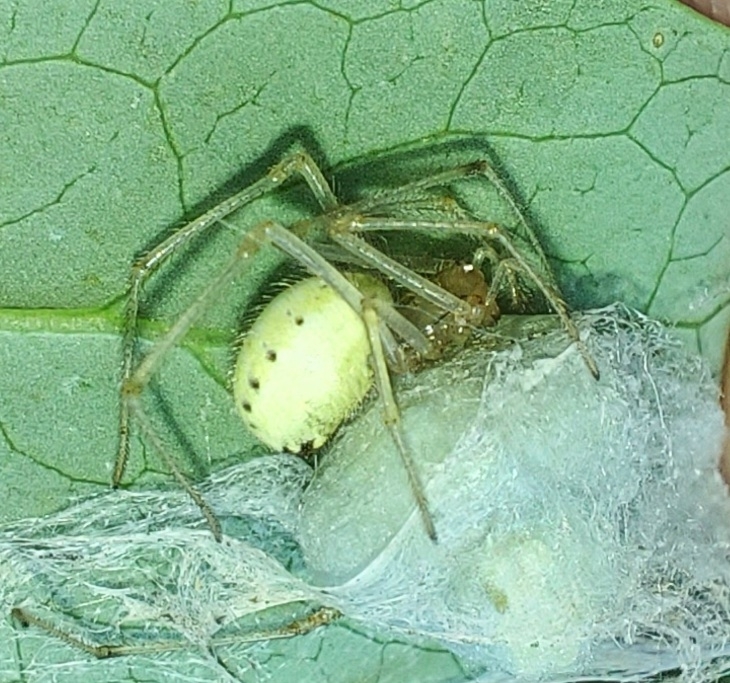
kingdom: Animalia
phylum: Arthropoda
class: Arachnida
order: Araneae
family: Theridiidae
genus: Enoplognatha
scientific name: Enoplognatha ovata
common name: Common candy-striped spider
